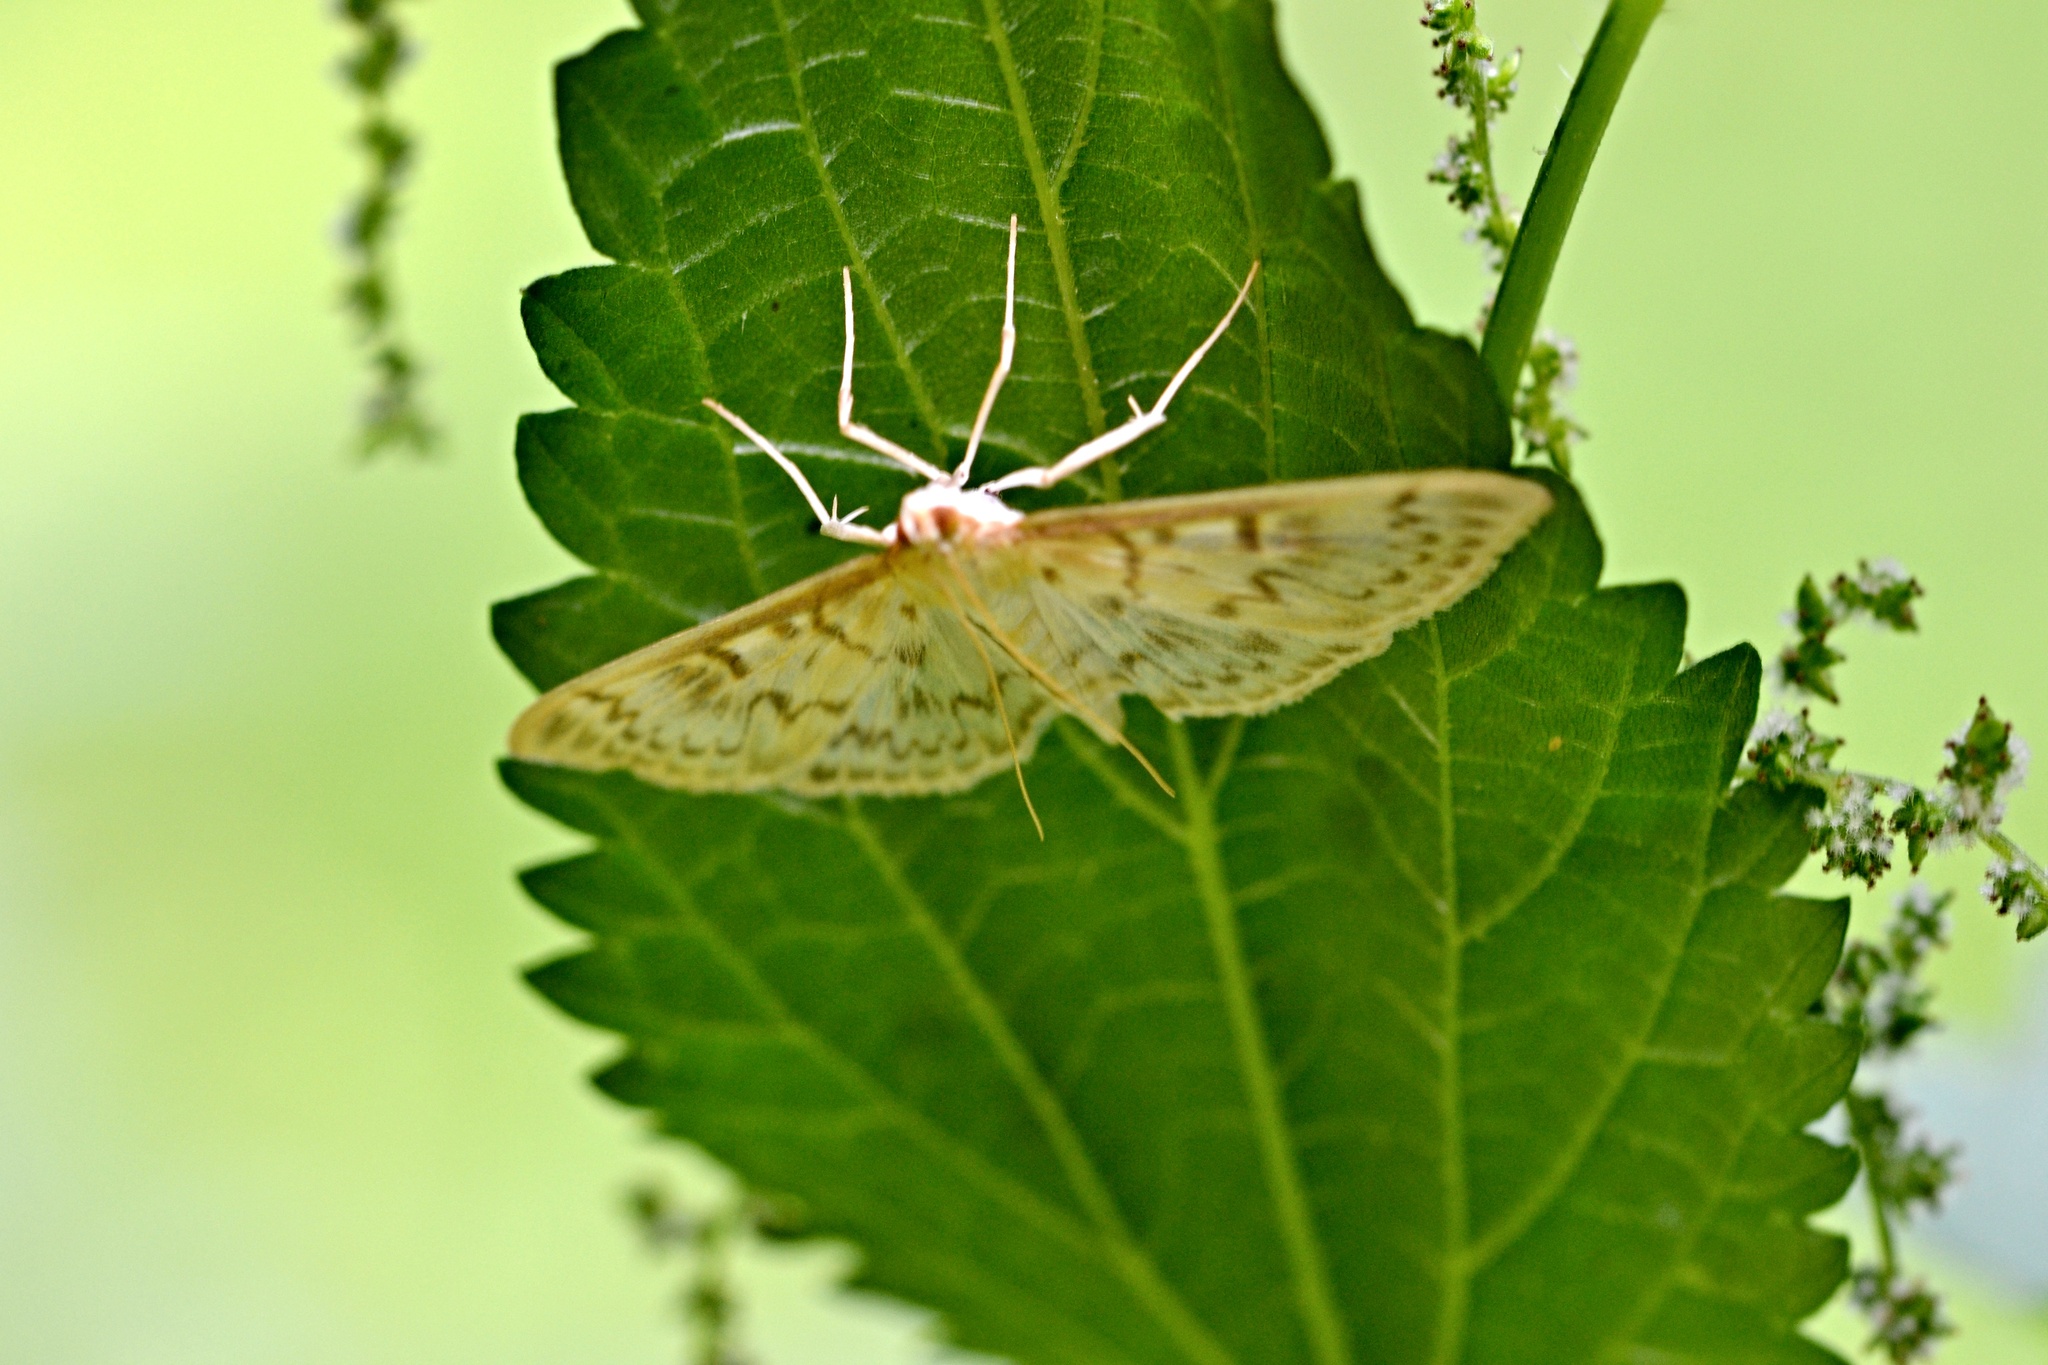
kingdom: Animalia
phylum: Arthropoda
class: Insecta
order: Lepidoptera
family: Crambidae
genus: Patania
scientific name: Patania ruralis
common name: Mother of pearl
